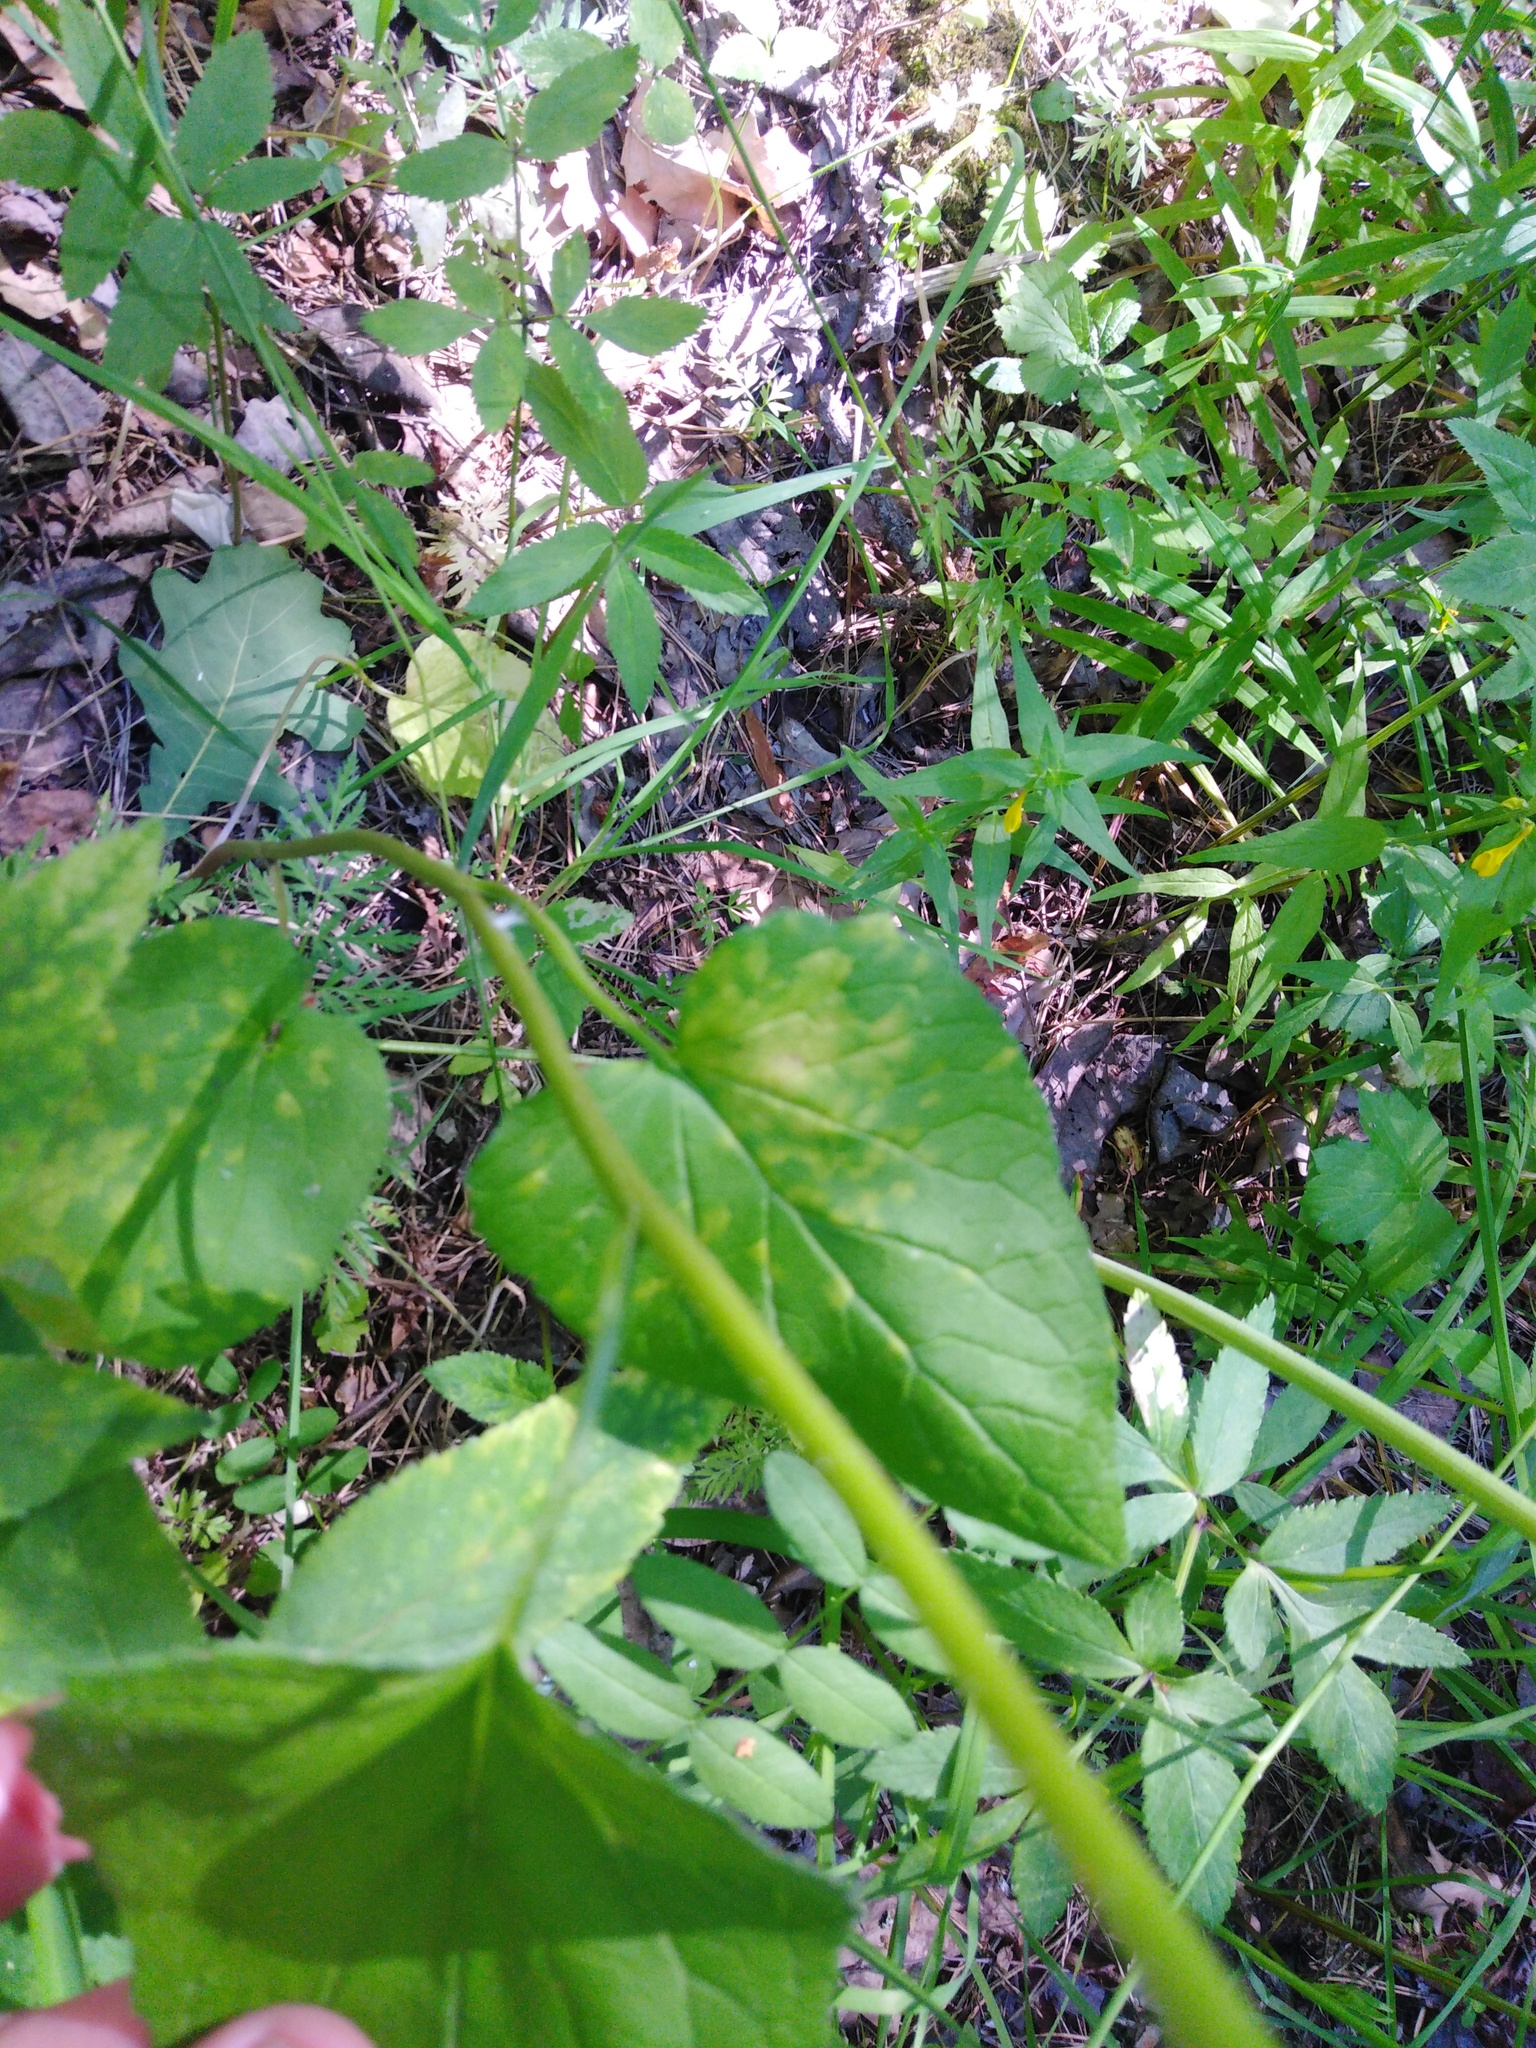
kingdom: Plantae
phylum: Tracheophyta
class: Magnoliopsida
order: Asterales
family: Campanulaceae
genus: Campanula
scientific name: Campanula rapunculoides
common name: Creeping bellflower
